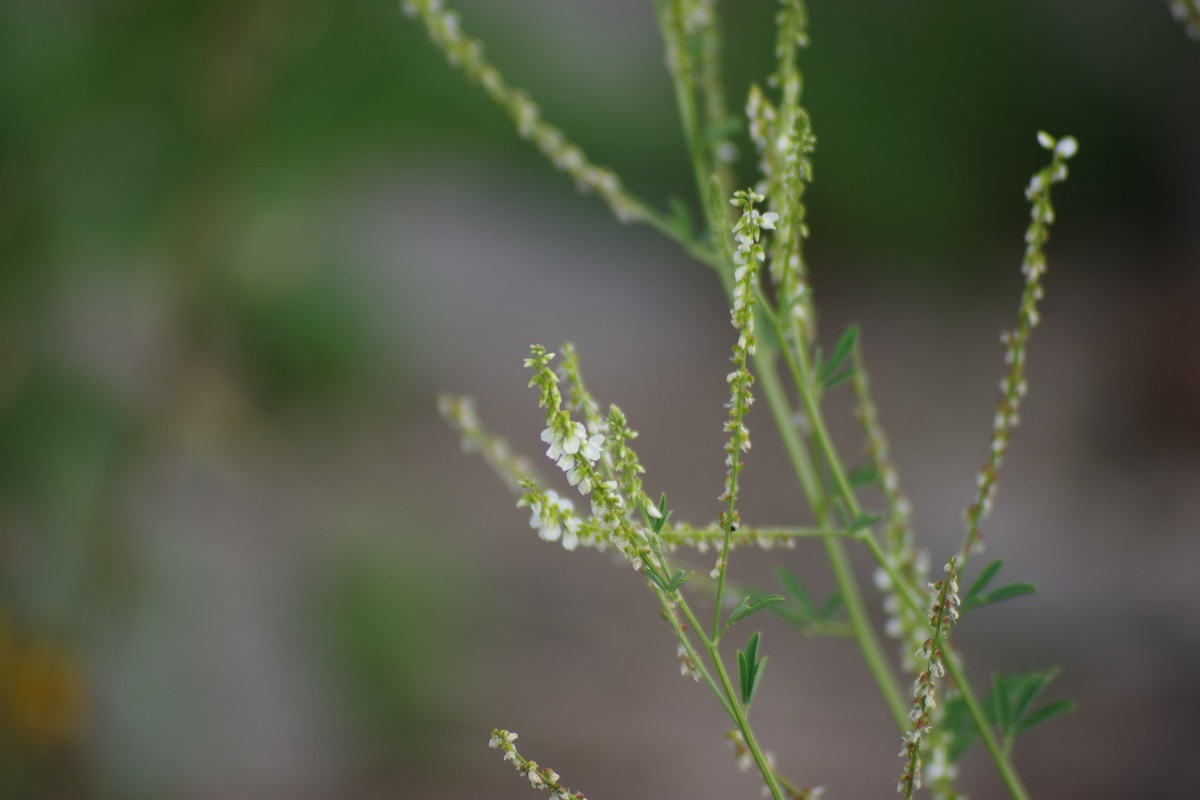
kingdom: Plantae
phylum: Tracheophyta
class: Magnoliopsida
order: Fabales
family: Fabaceae
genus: Melilotus
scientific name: Melilotus albus
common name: White melilot
